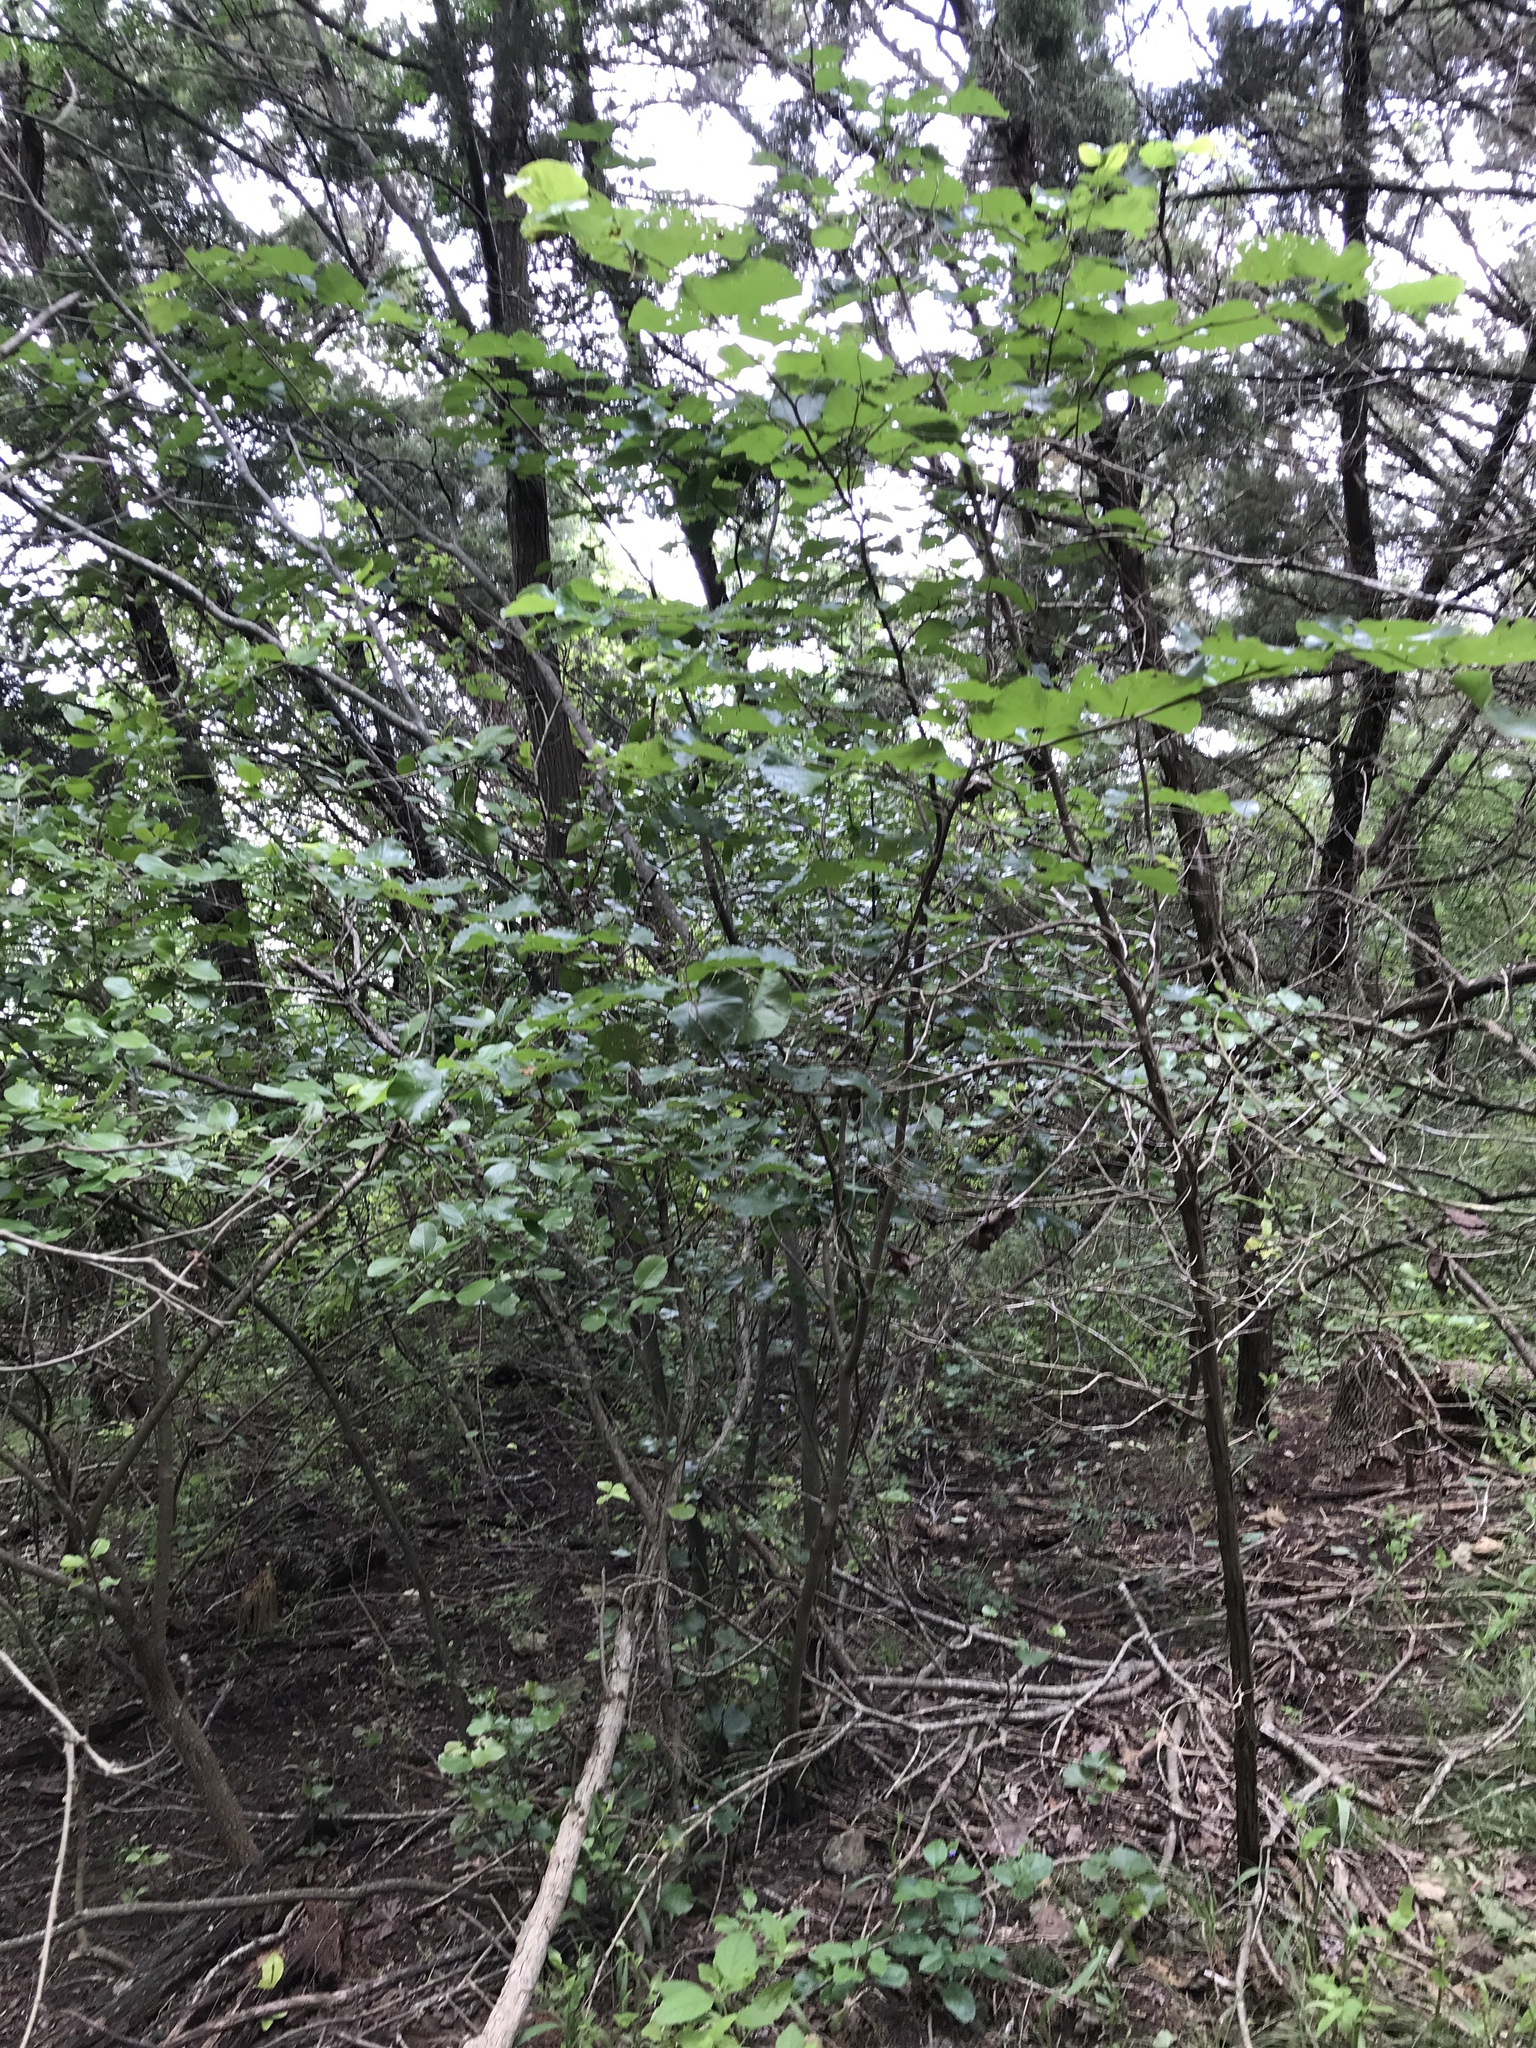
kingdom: Plantae
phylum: Tracheophyta
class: Magnoliopsida
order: Fabales
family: Fabaceae
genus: Cercis
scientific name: Cercis canadensis
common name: Eastern redbud
